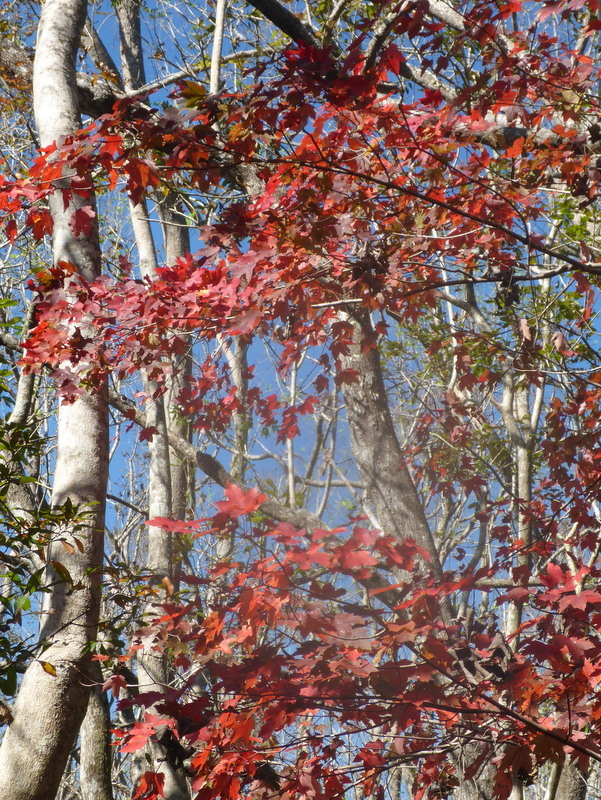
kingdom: Plantae
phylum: Tracheophyta
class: Magnoliopsida
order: Sapindales
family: Sapindaceae
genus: Acer
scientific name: Acer rubrum
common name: Red maple
